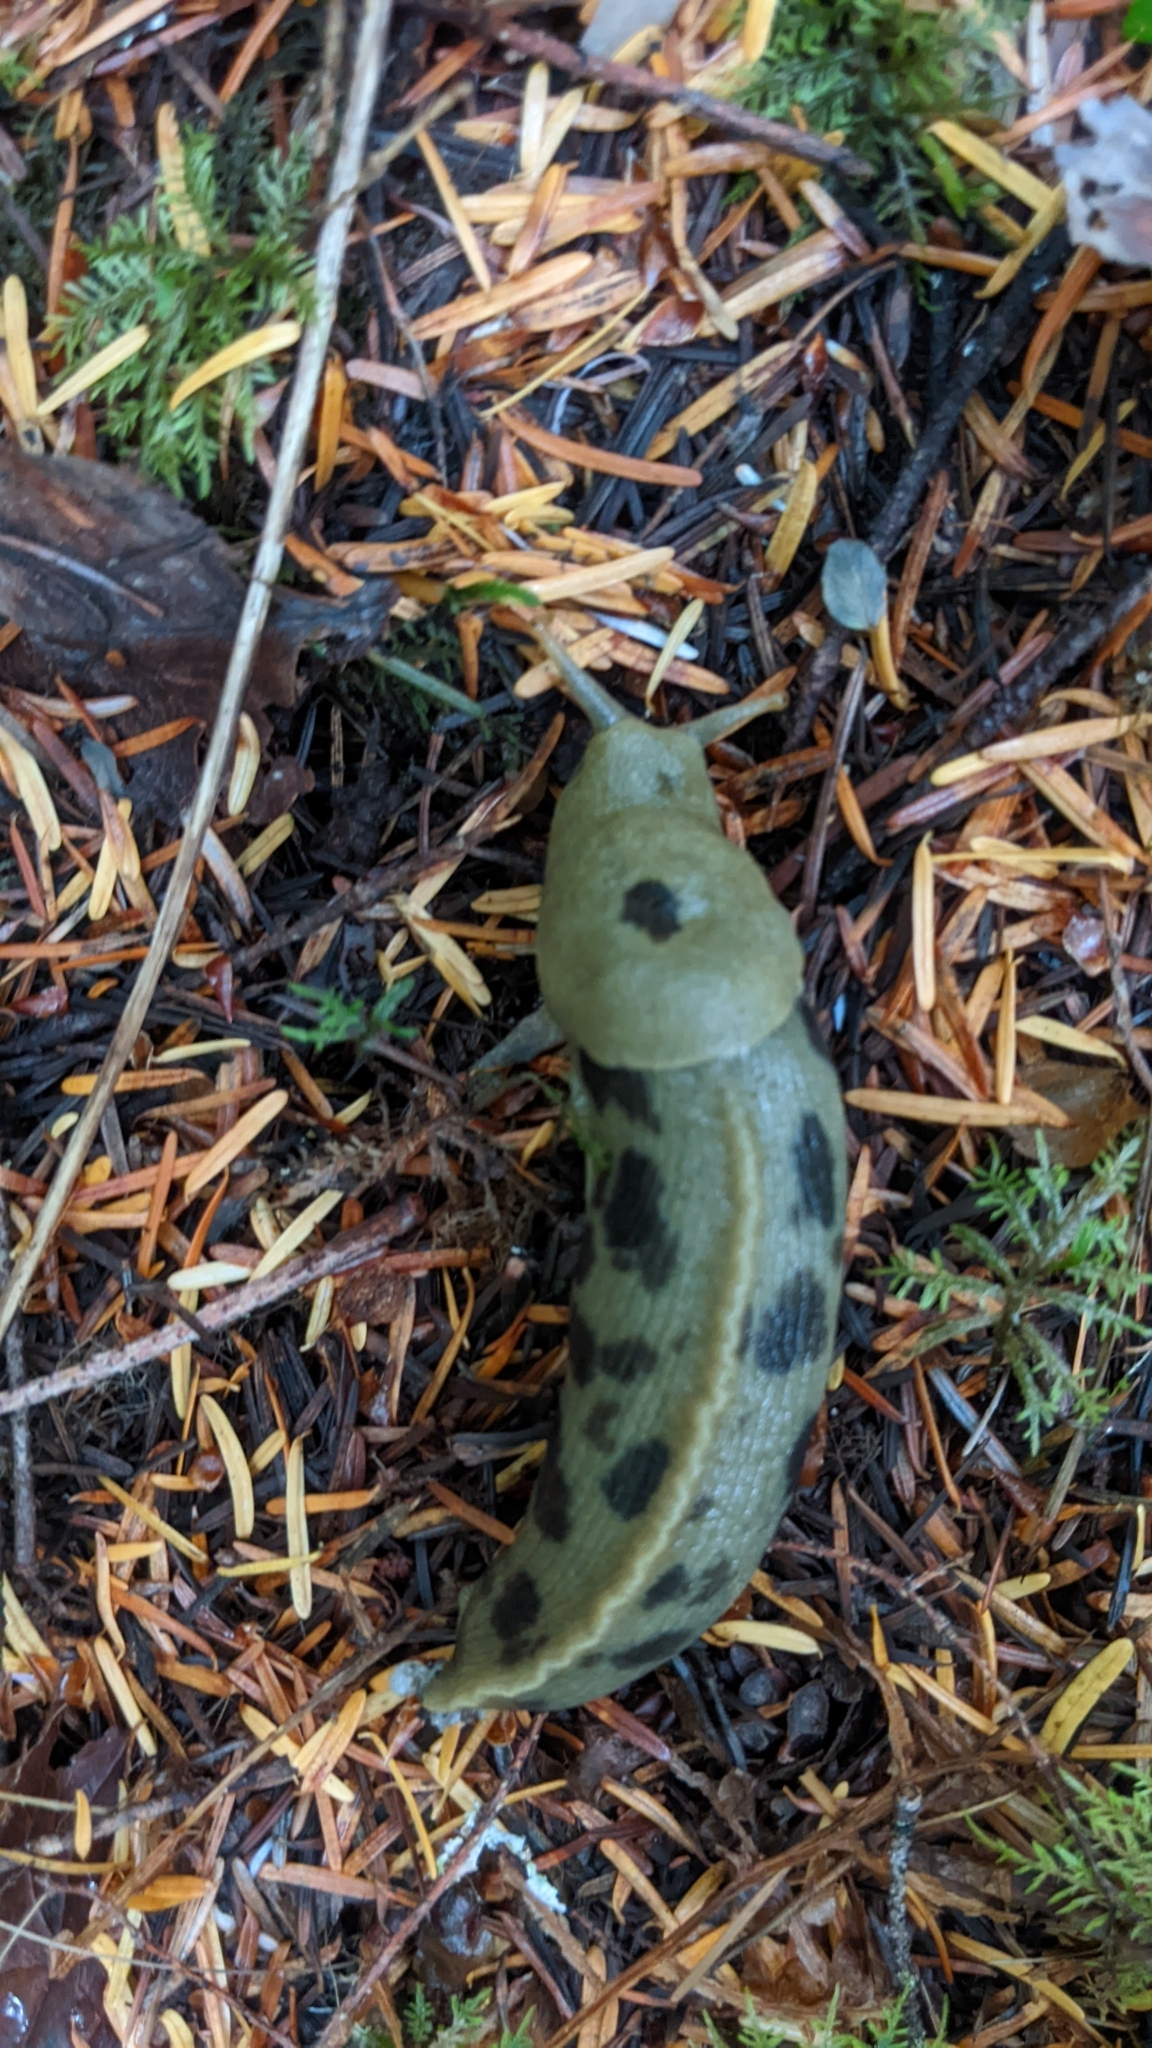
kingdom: Animalia
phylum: Mollusca
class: Gastropoda
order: Stylommatophora
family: Ariolimacidae
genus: Ariolimax
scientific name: Ariolimax columbianus
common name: Pacific banana slug
